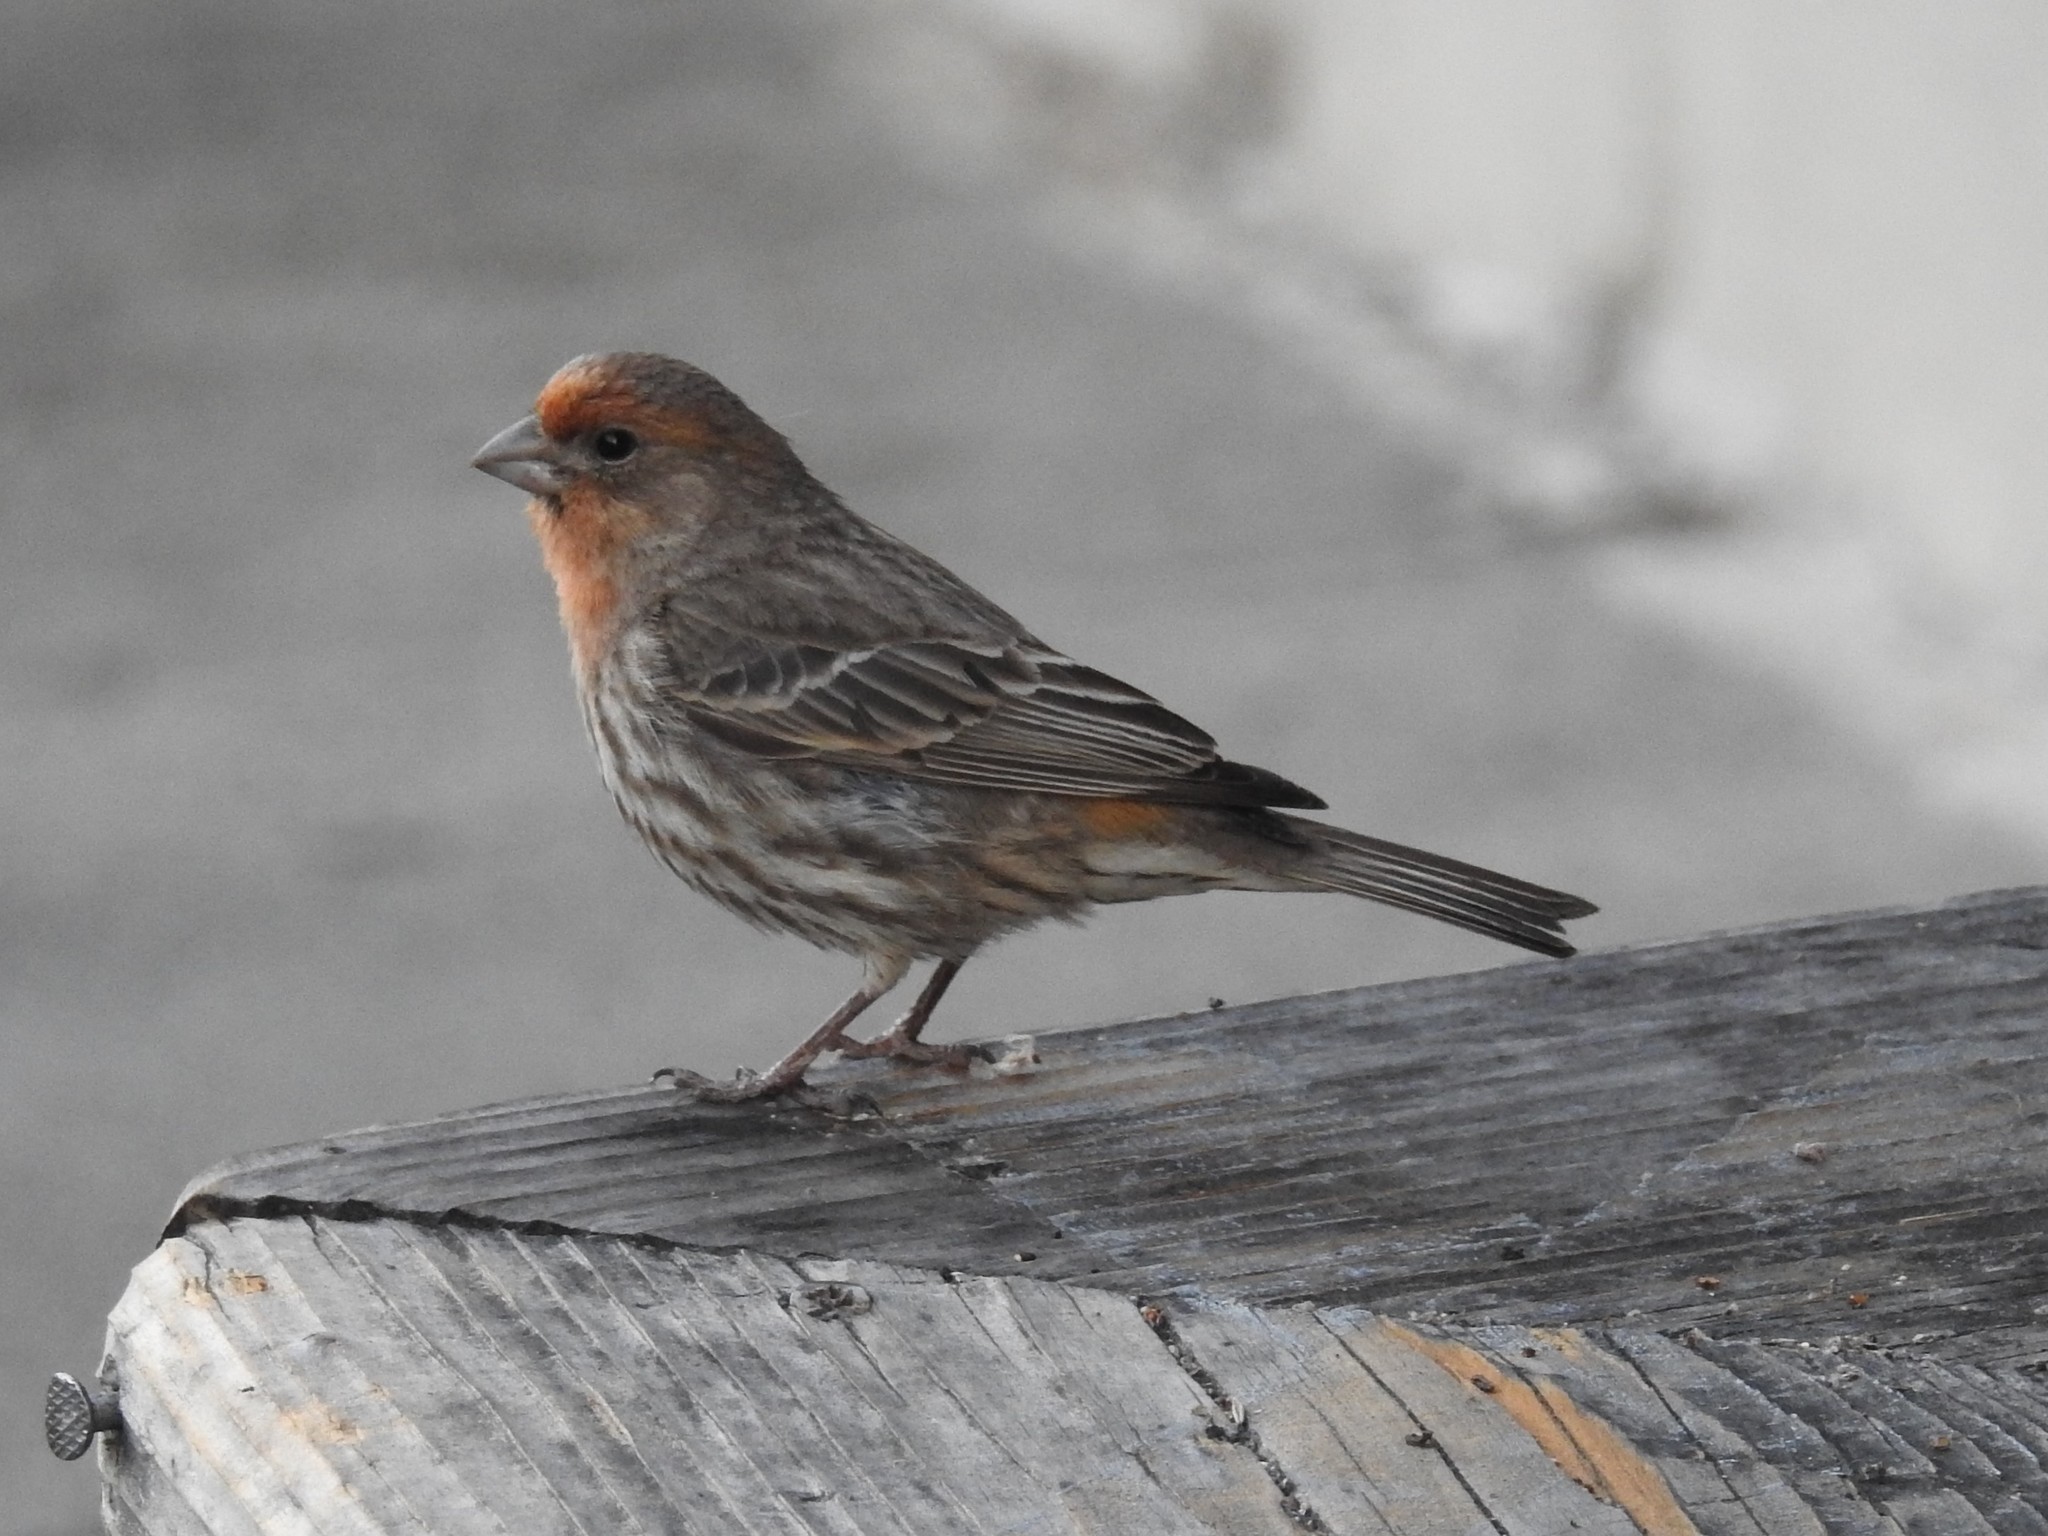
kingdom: Animalia
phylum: Chordata
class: Aves
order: Passeriformes
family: Fringillidae
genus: Haemorhous
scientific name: Haemorhous mexicanus
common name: House finch
